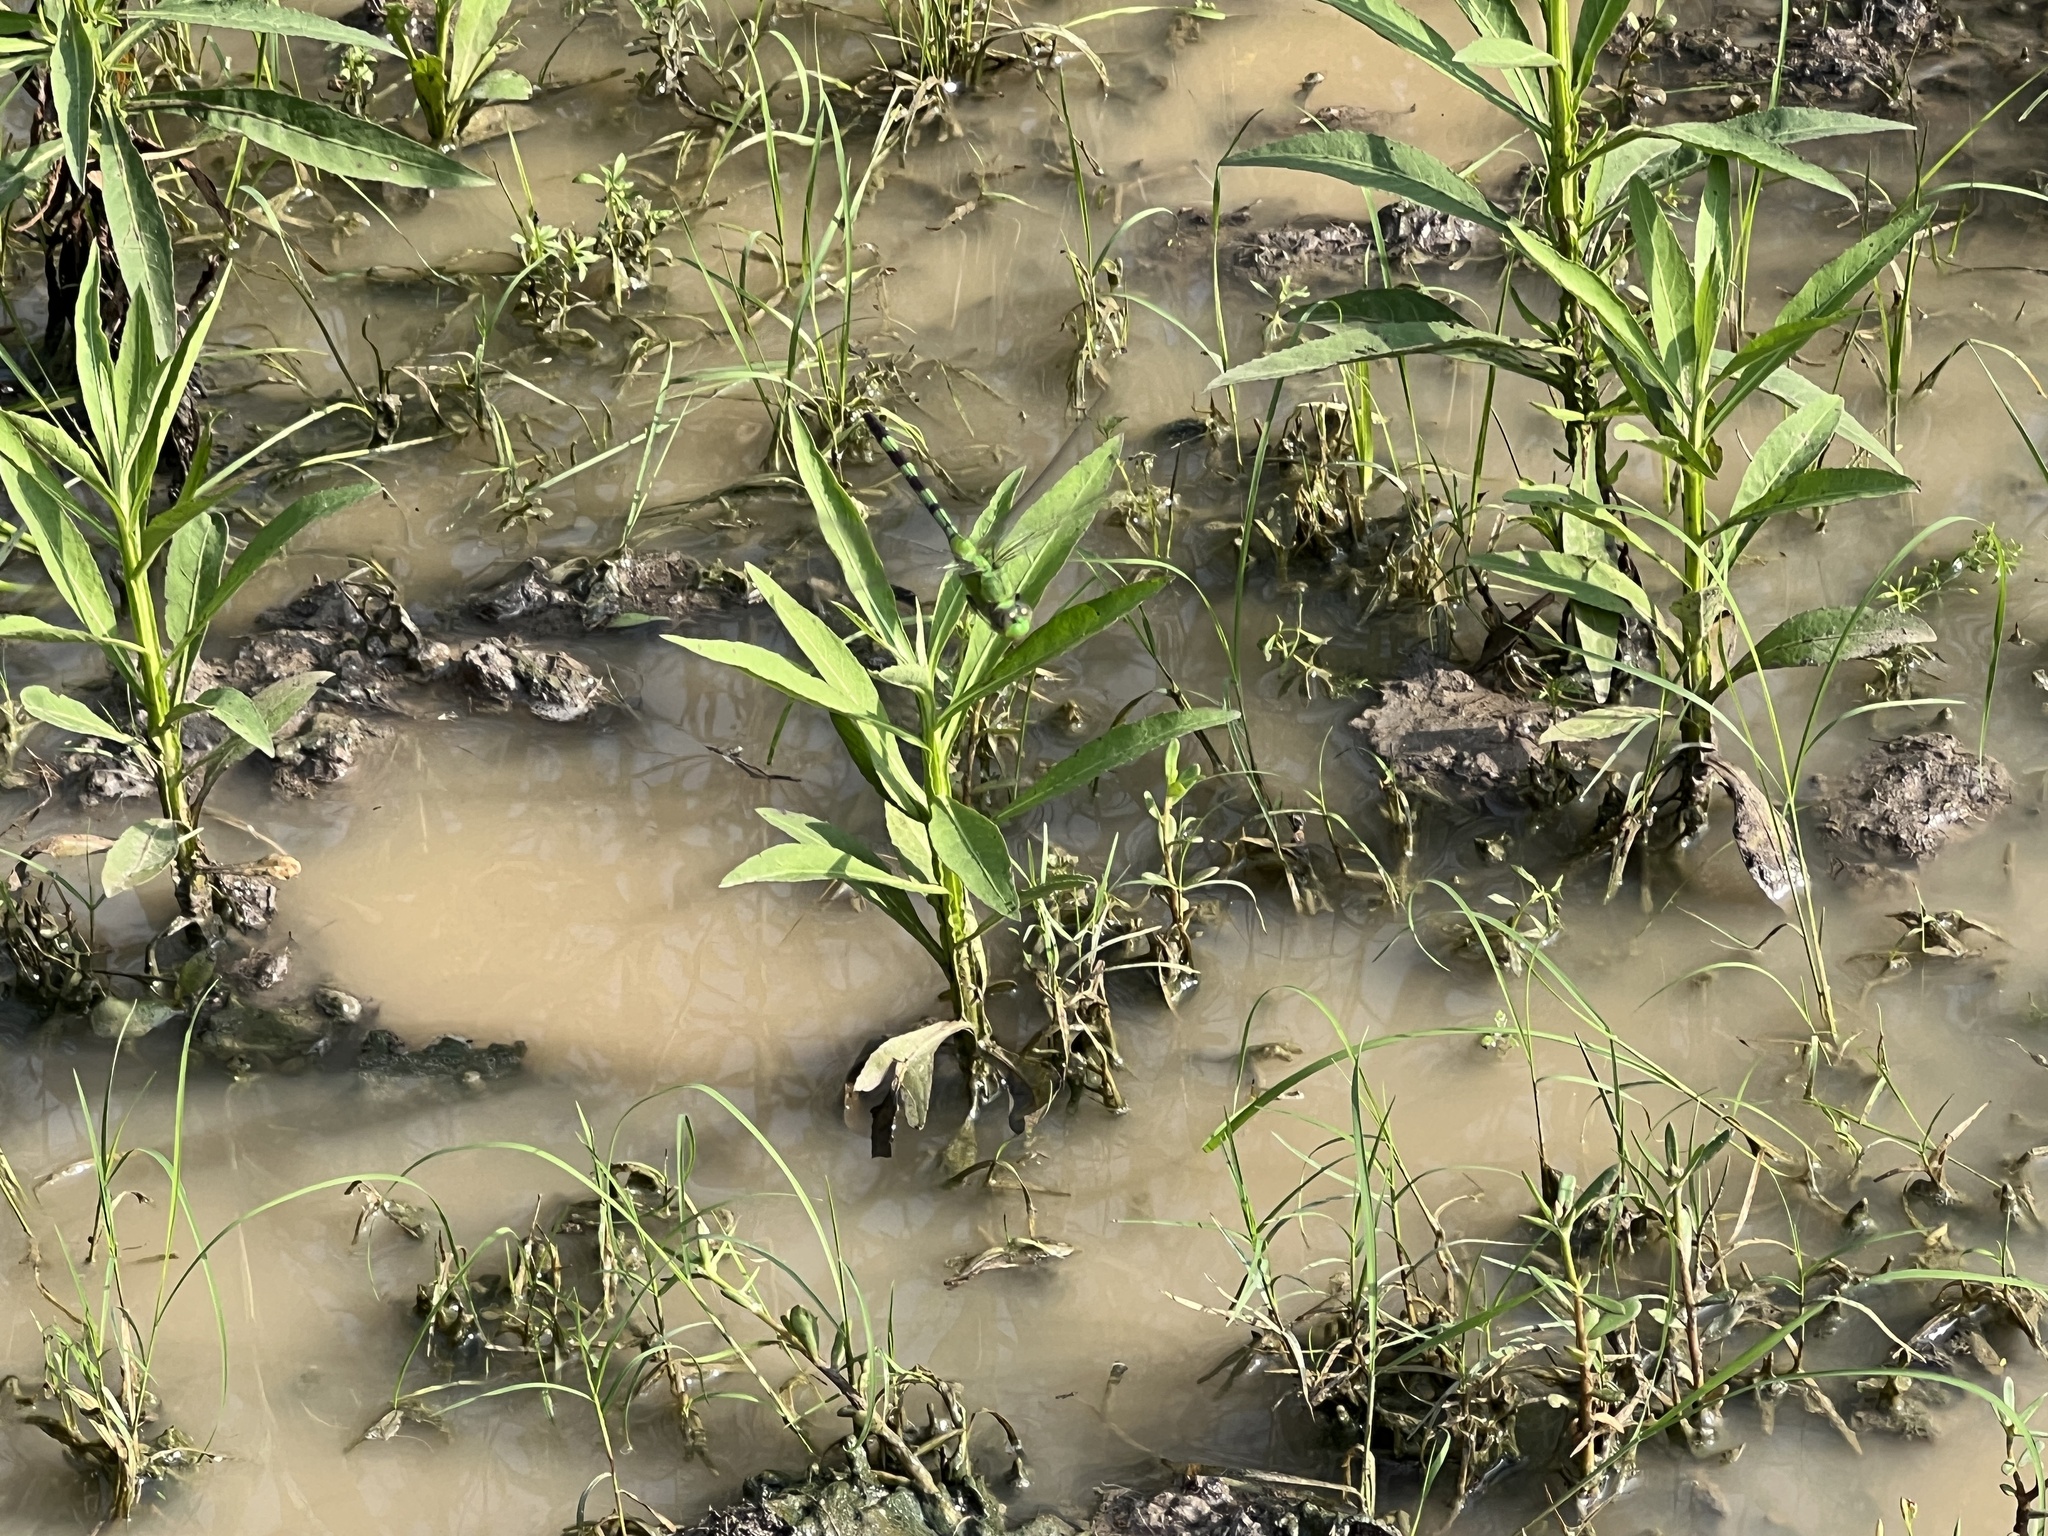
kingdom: Animalia
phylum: Arthropoda
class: Insecta
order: Odonata
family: Libellulidae
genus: Erythemis
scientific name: Erythemis vesiculosa
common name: Great pondhawk
